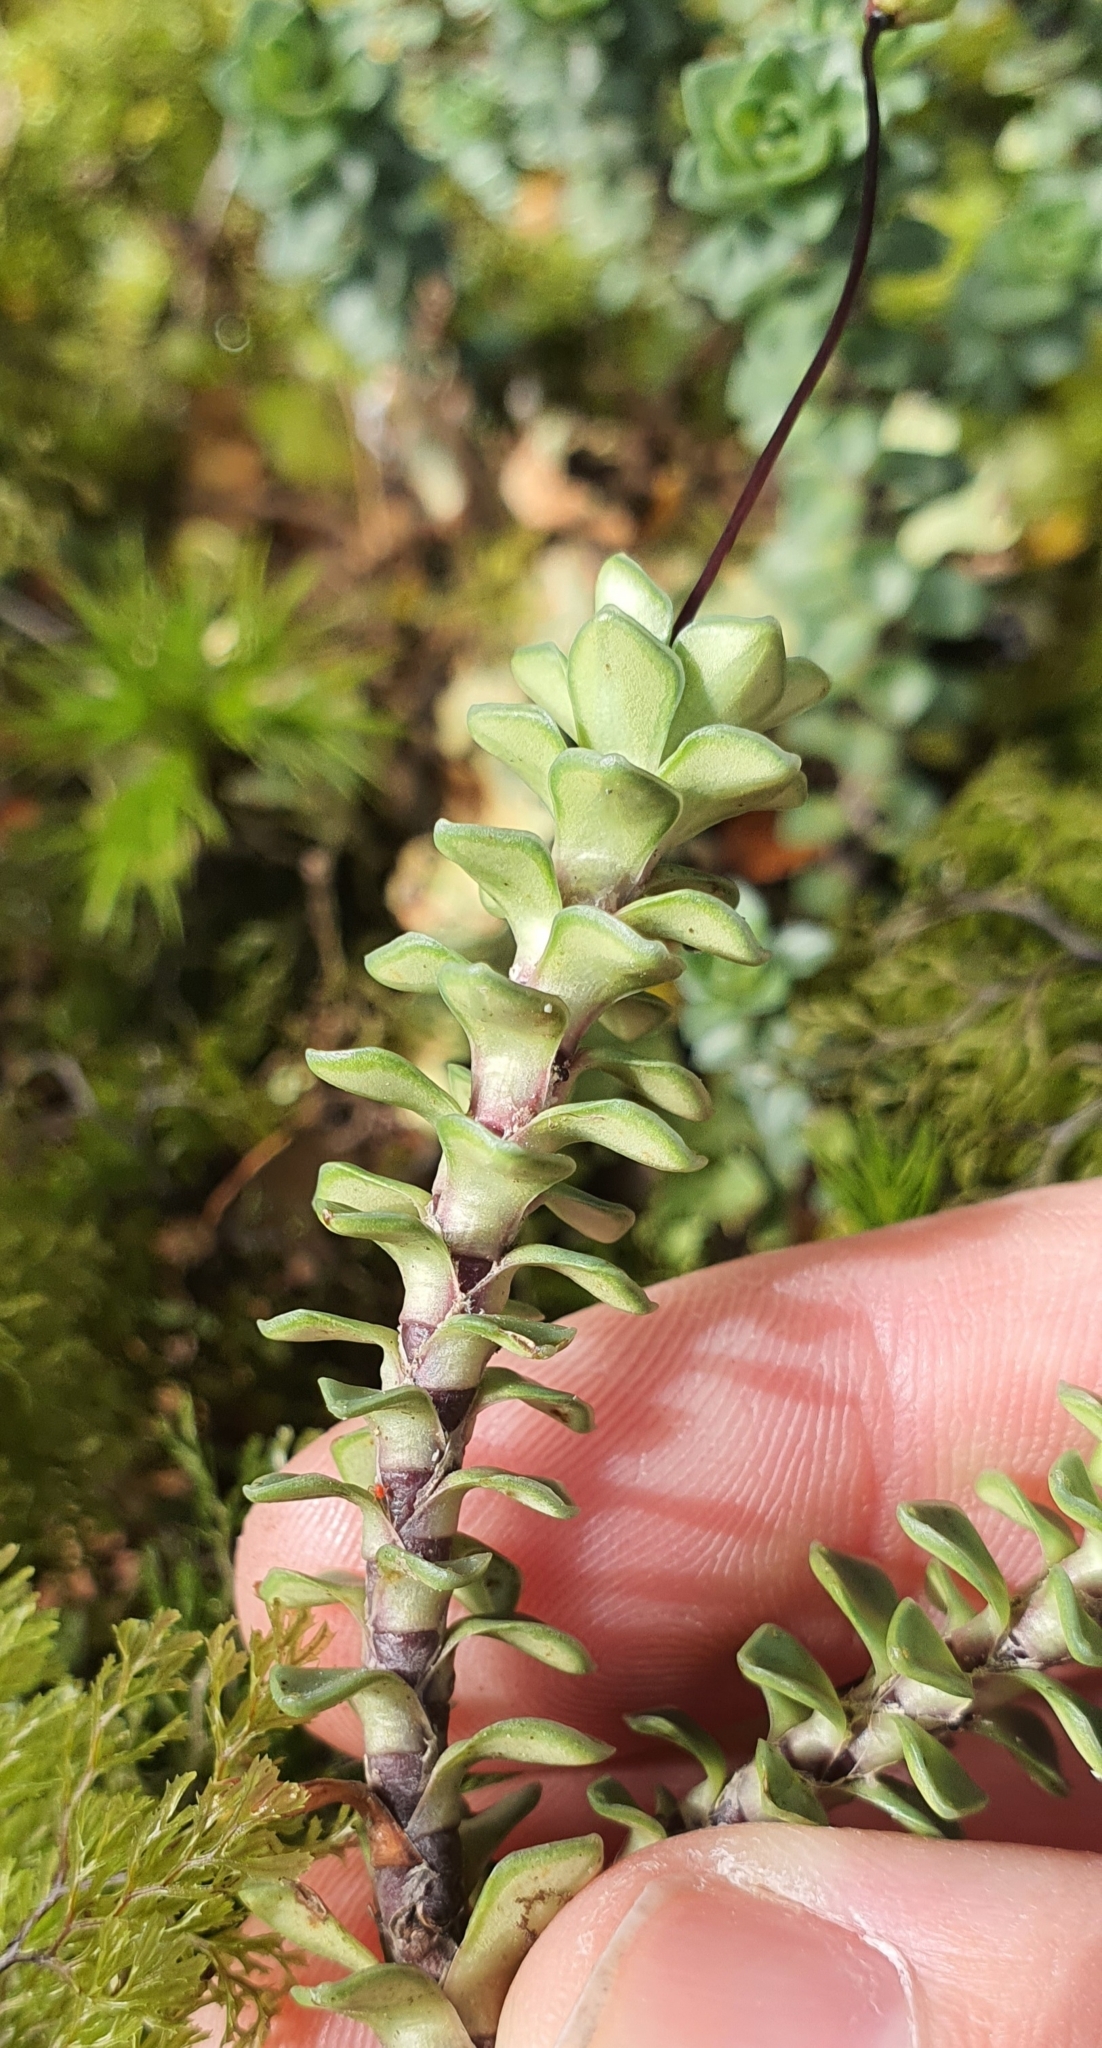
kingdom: Plantae
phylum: Tracheophyta
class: Magnoliopsida
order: Asterales
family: Stylidiaceae
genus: Forstera
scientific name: Forstera sedifolia
